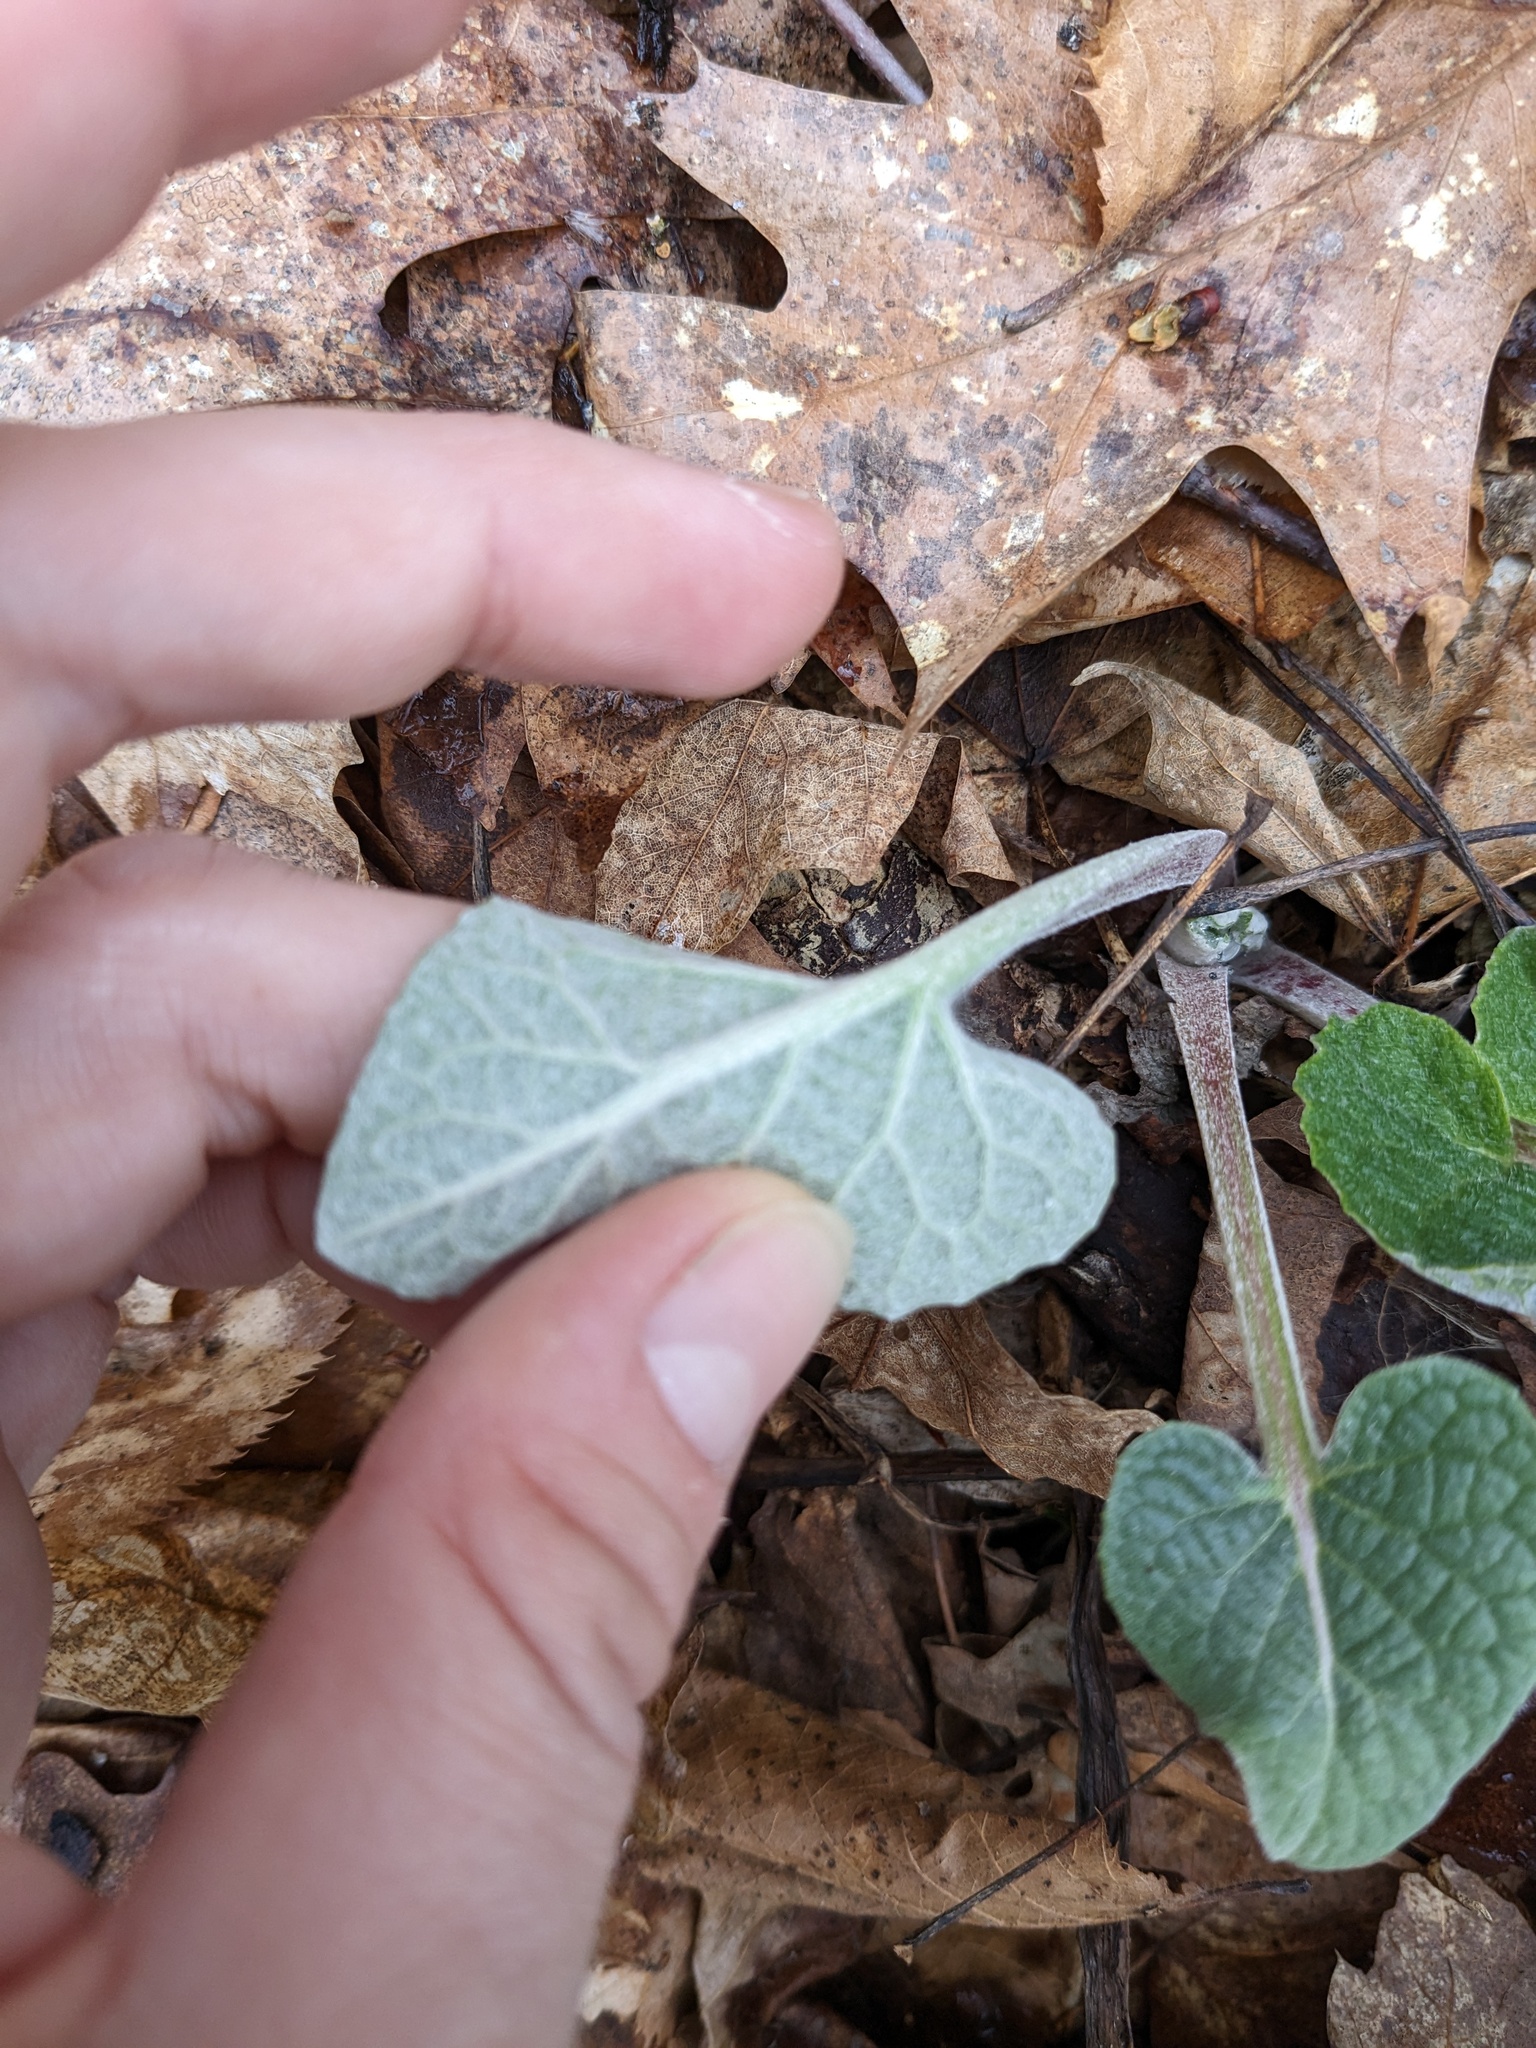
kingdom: Plantae
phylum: Tracheophyta
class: Magnoliopsida
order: Asterales
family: Asteraceae
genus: Arctium
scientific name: Arctium
